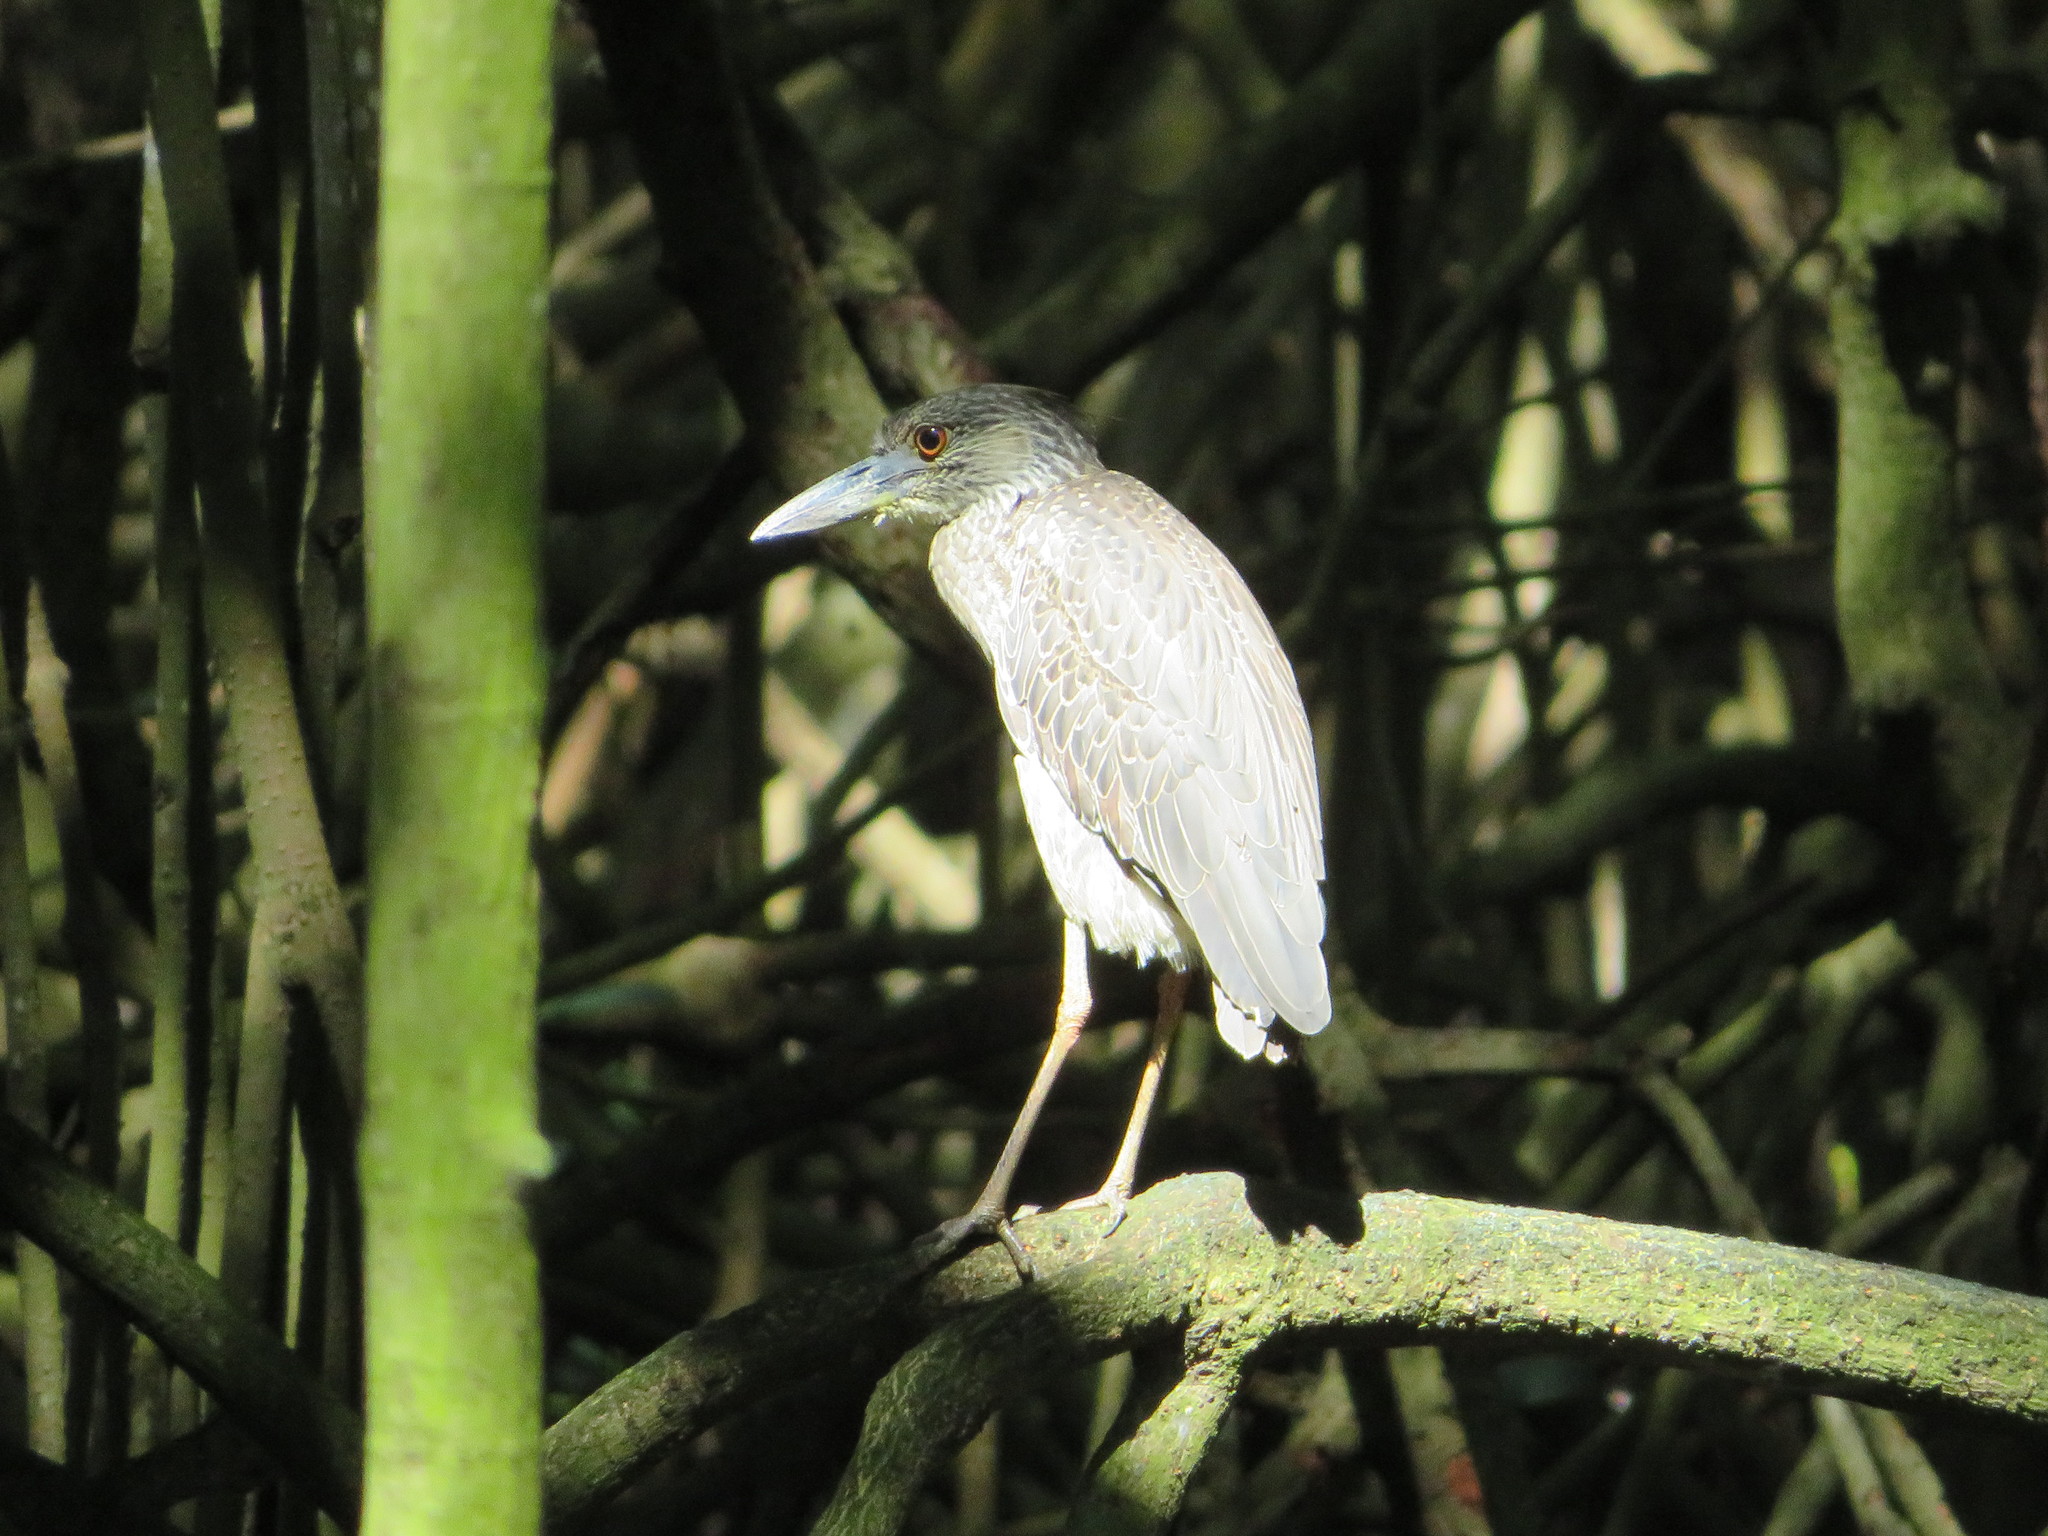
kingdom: Animalia
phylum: Chordata
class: Aves
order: Pelecaniformes
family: Ardeidae
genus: Nyctanassa
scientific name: Nyctanassa violacea
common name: Yellow-crowned night heron
